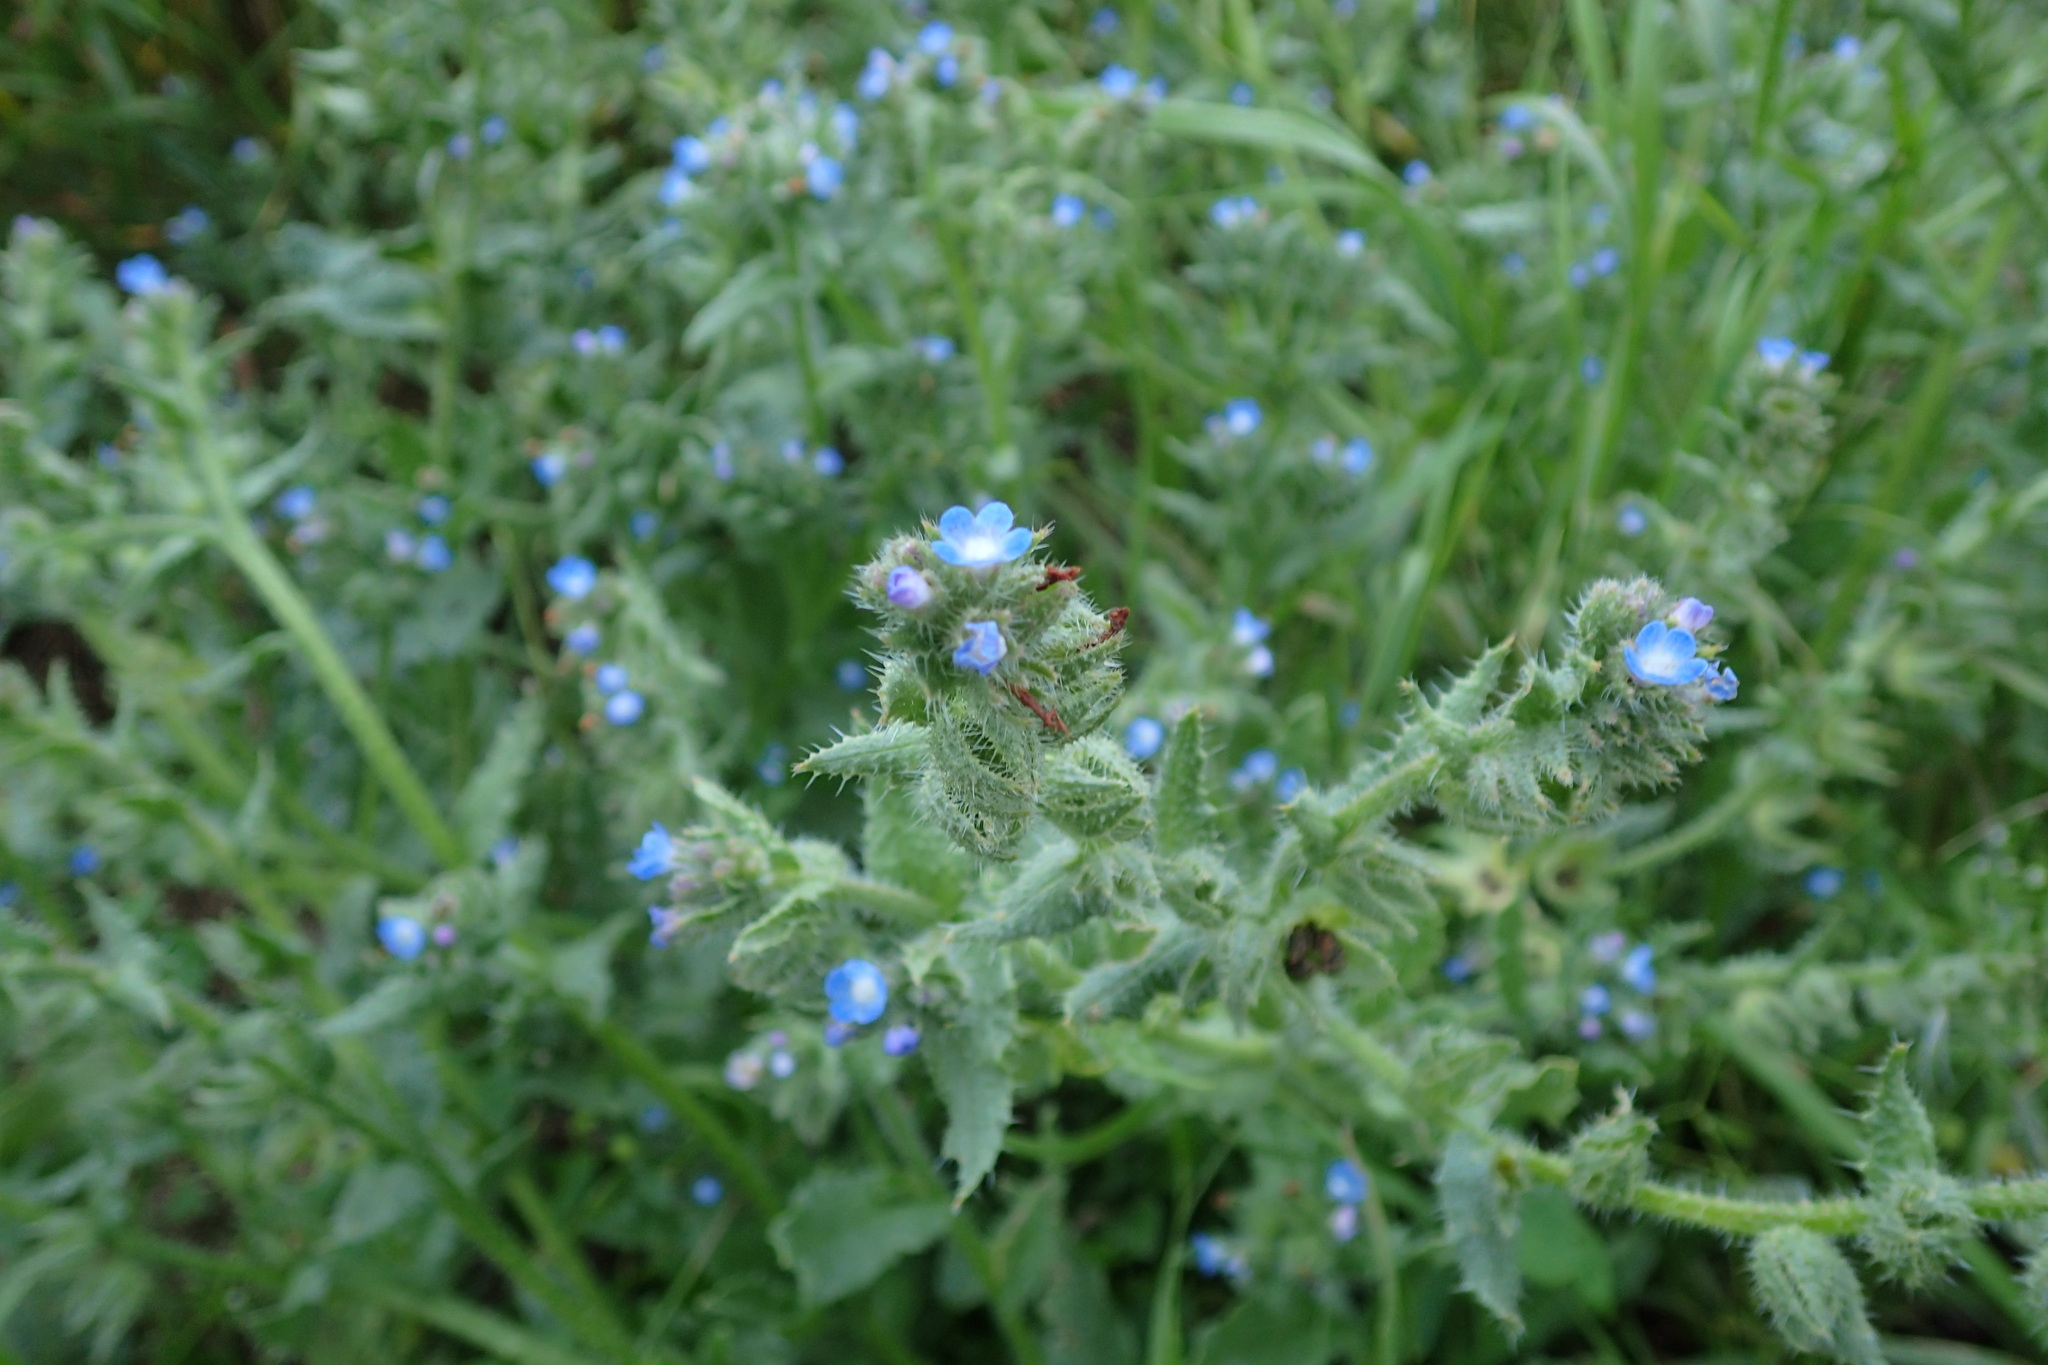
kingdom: Plantae
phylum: Tracheophyta
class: Magnoliopsida
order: Boraginales
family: Boraginaceae
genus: Lycopsis
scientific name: Lycopsis arvensis
